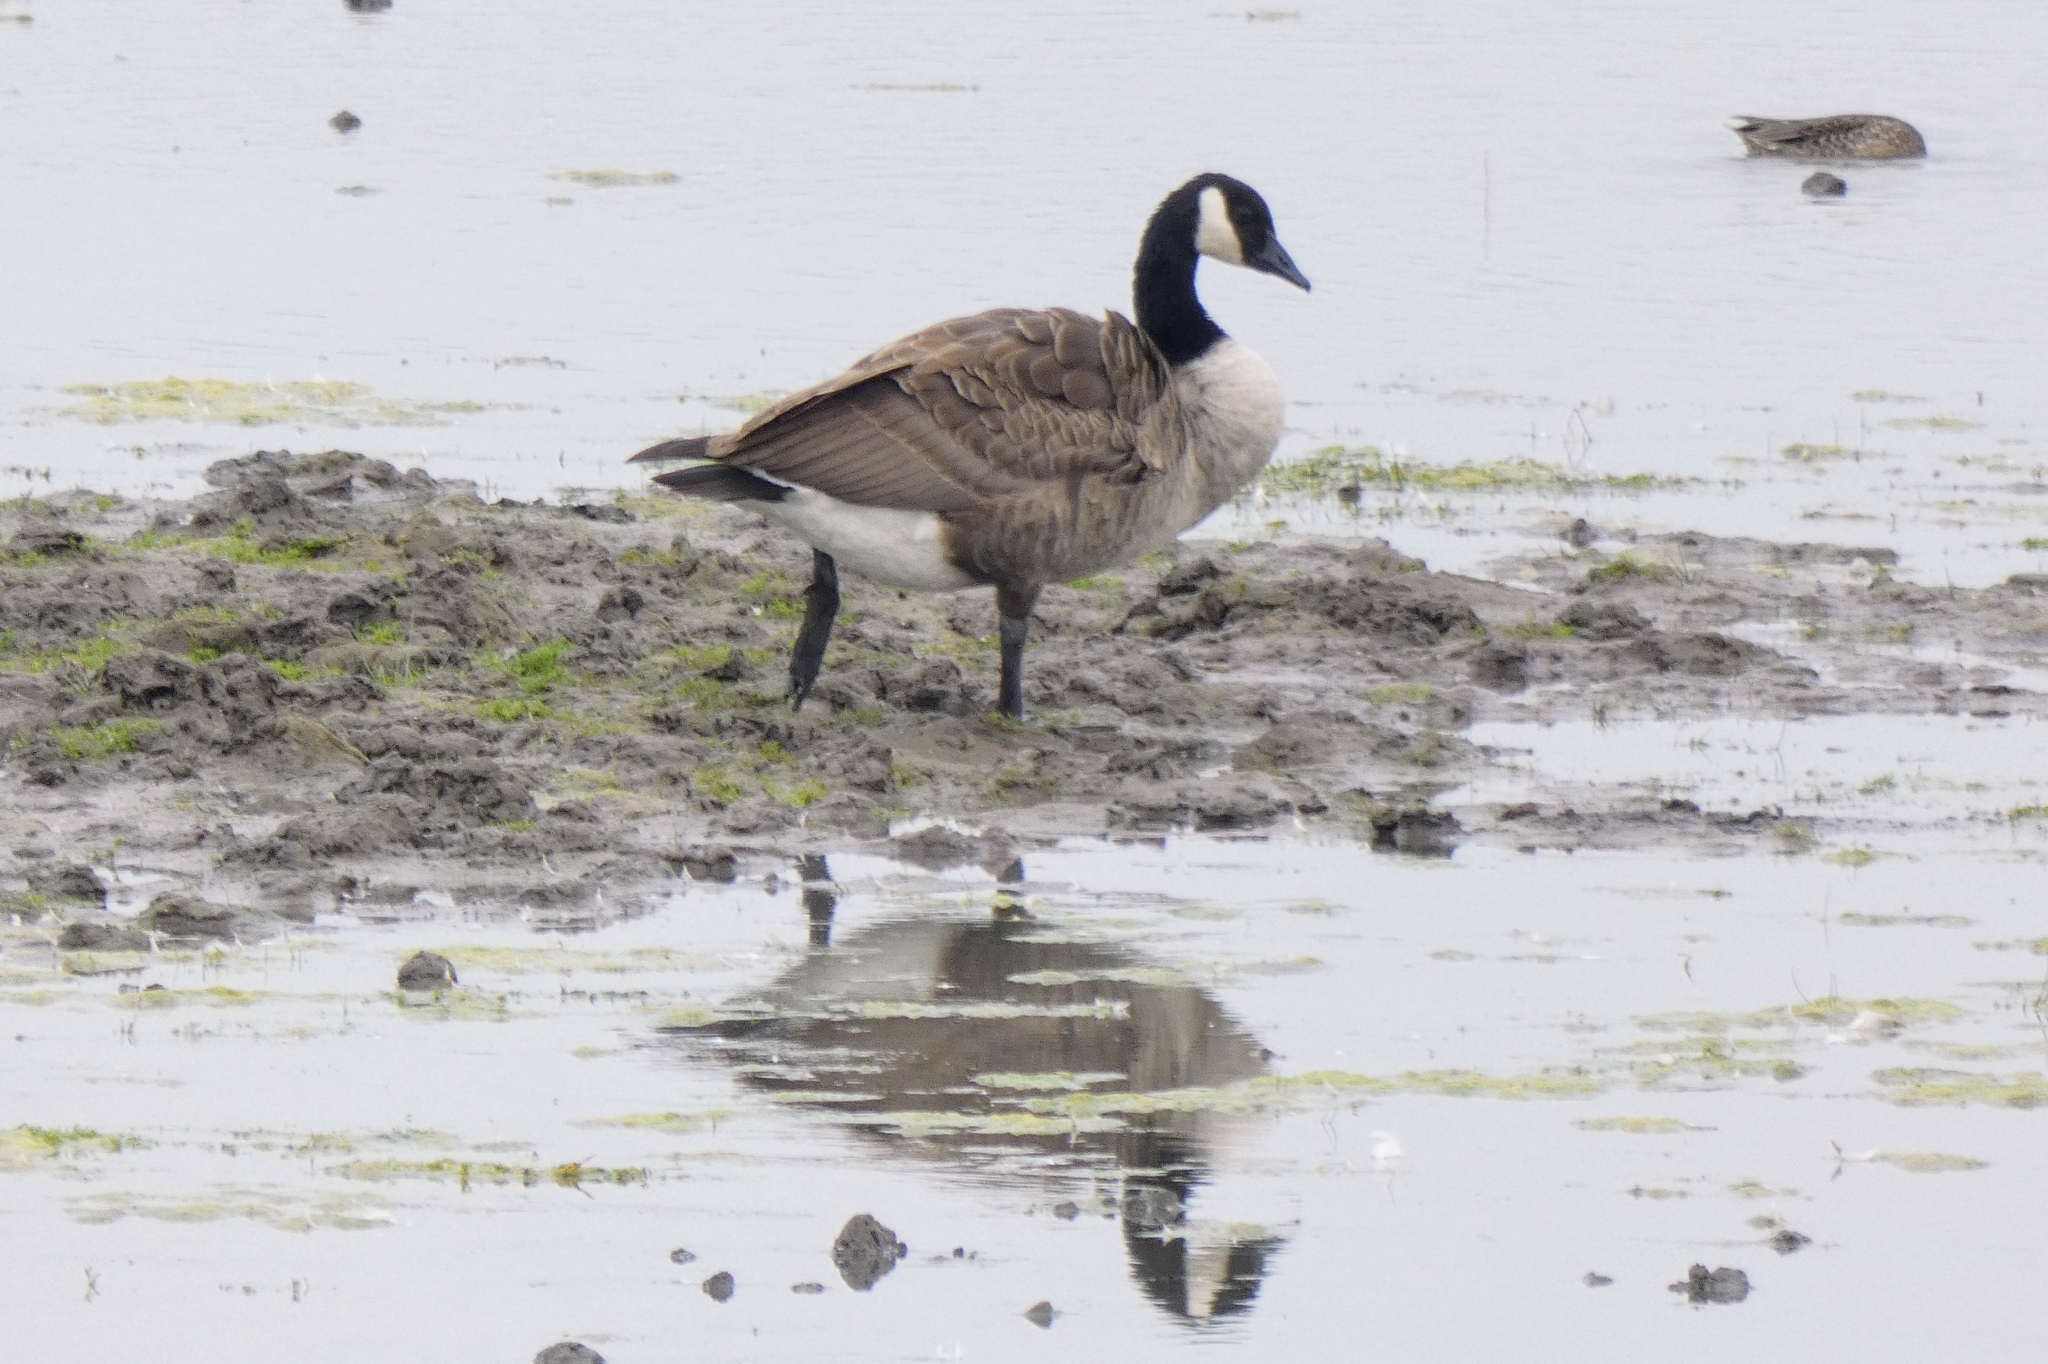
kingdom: Animalia
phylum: Chordata
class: Aves
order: Anseriformes
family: Anatidae
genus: Branta
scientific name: Branta canadensis
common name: Canada goose
